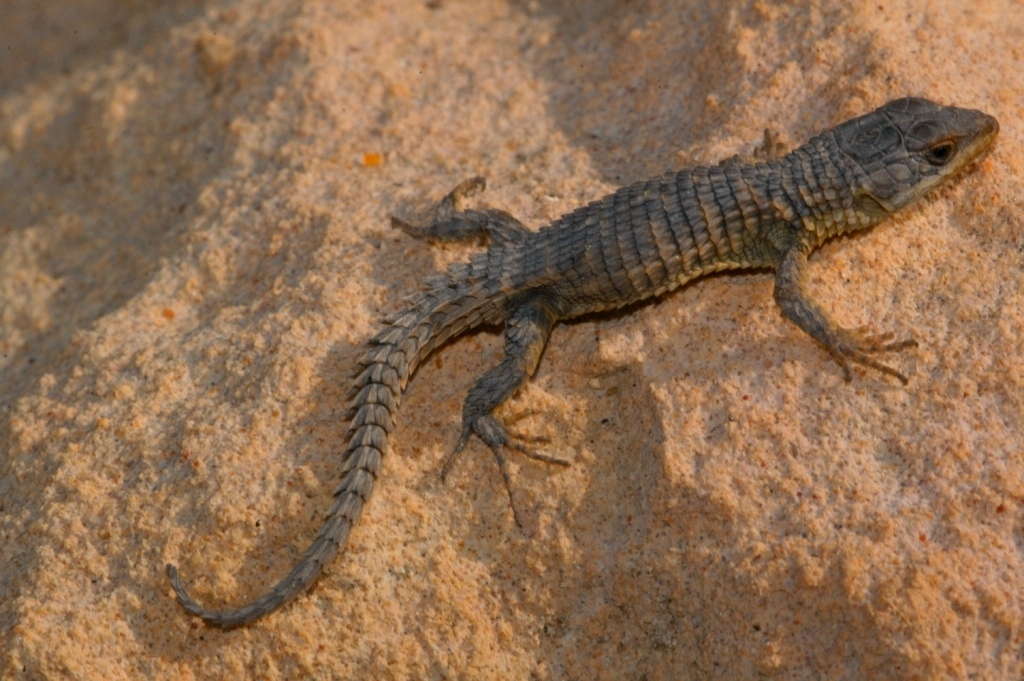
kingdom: Animalia
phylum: Chordata
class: Squamata
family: Cordylidae
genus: Cordylus
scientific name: Cordylus cordylus
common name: Cape girdled lizard
